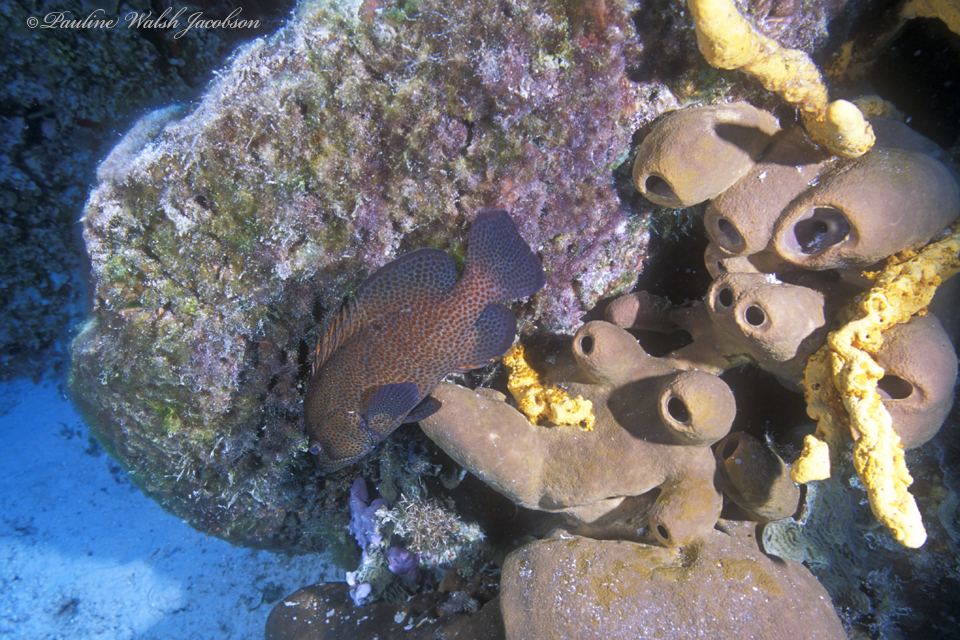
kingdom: Animalia
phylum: Chordata
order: Perciformes
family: Serranidae
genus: Cephalopholis
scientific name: Cephalopholis cruentata
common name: Graysby
